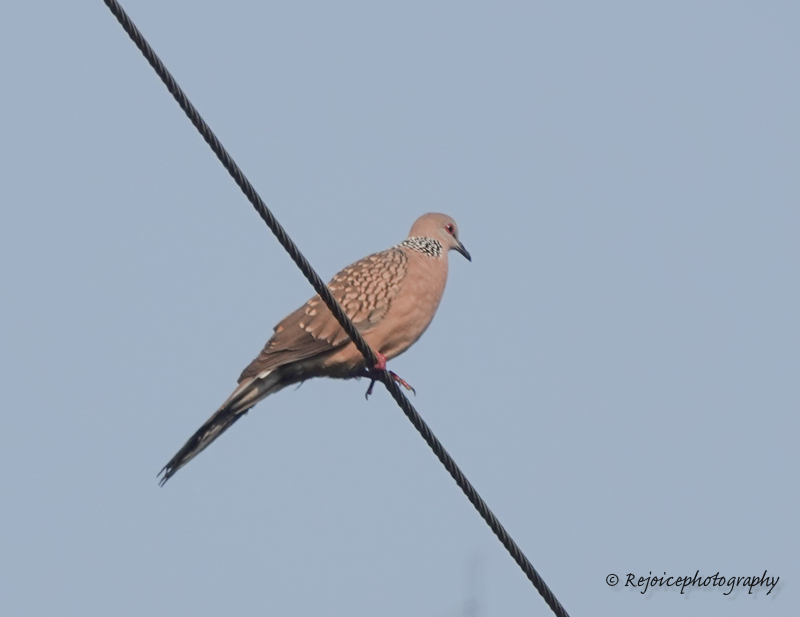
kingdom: Animalia
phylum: Chordata
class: Aves
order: Columbiformes
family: Columbidae
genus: Spilopelia
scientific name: Spilopelia chinensis
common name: Spotted dove
